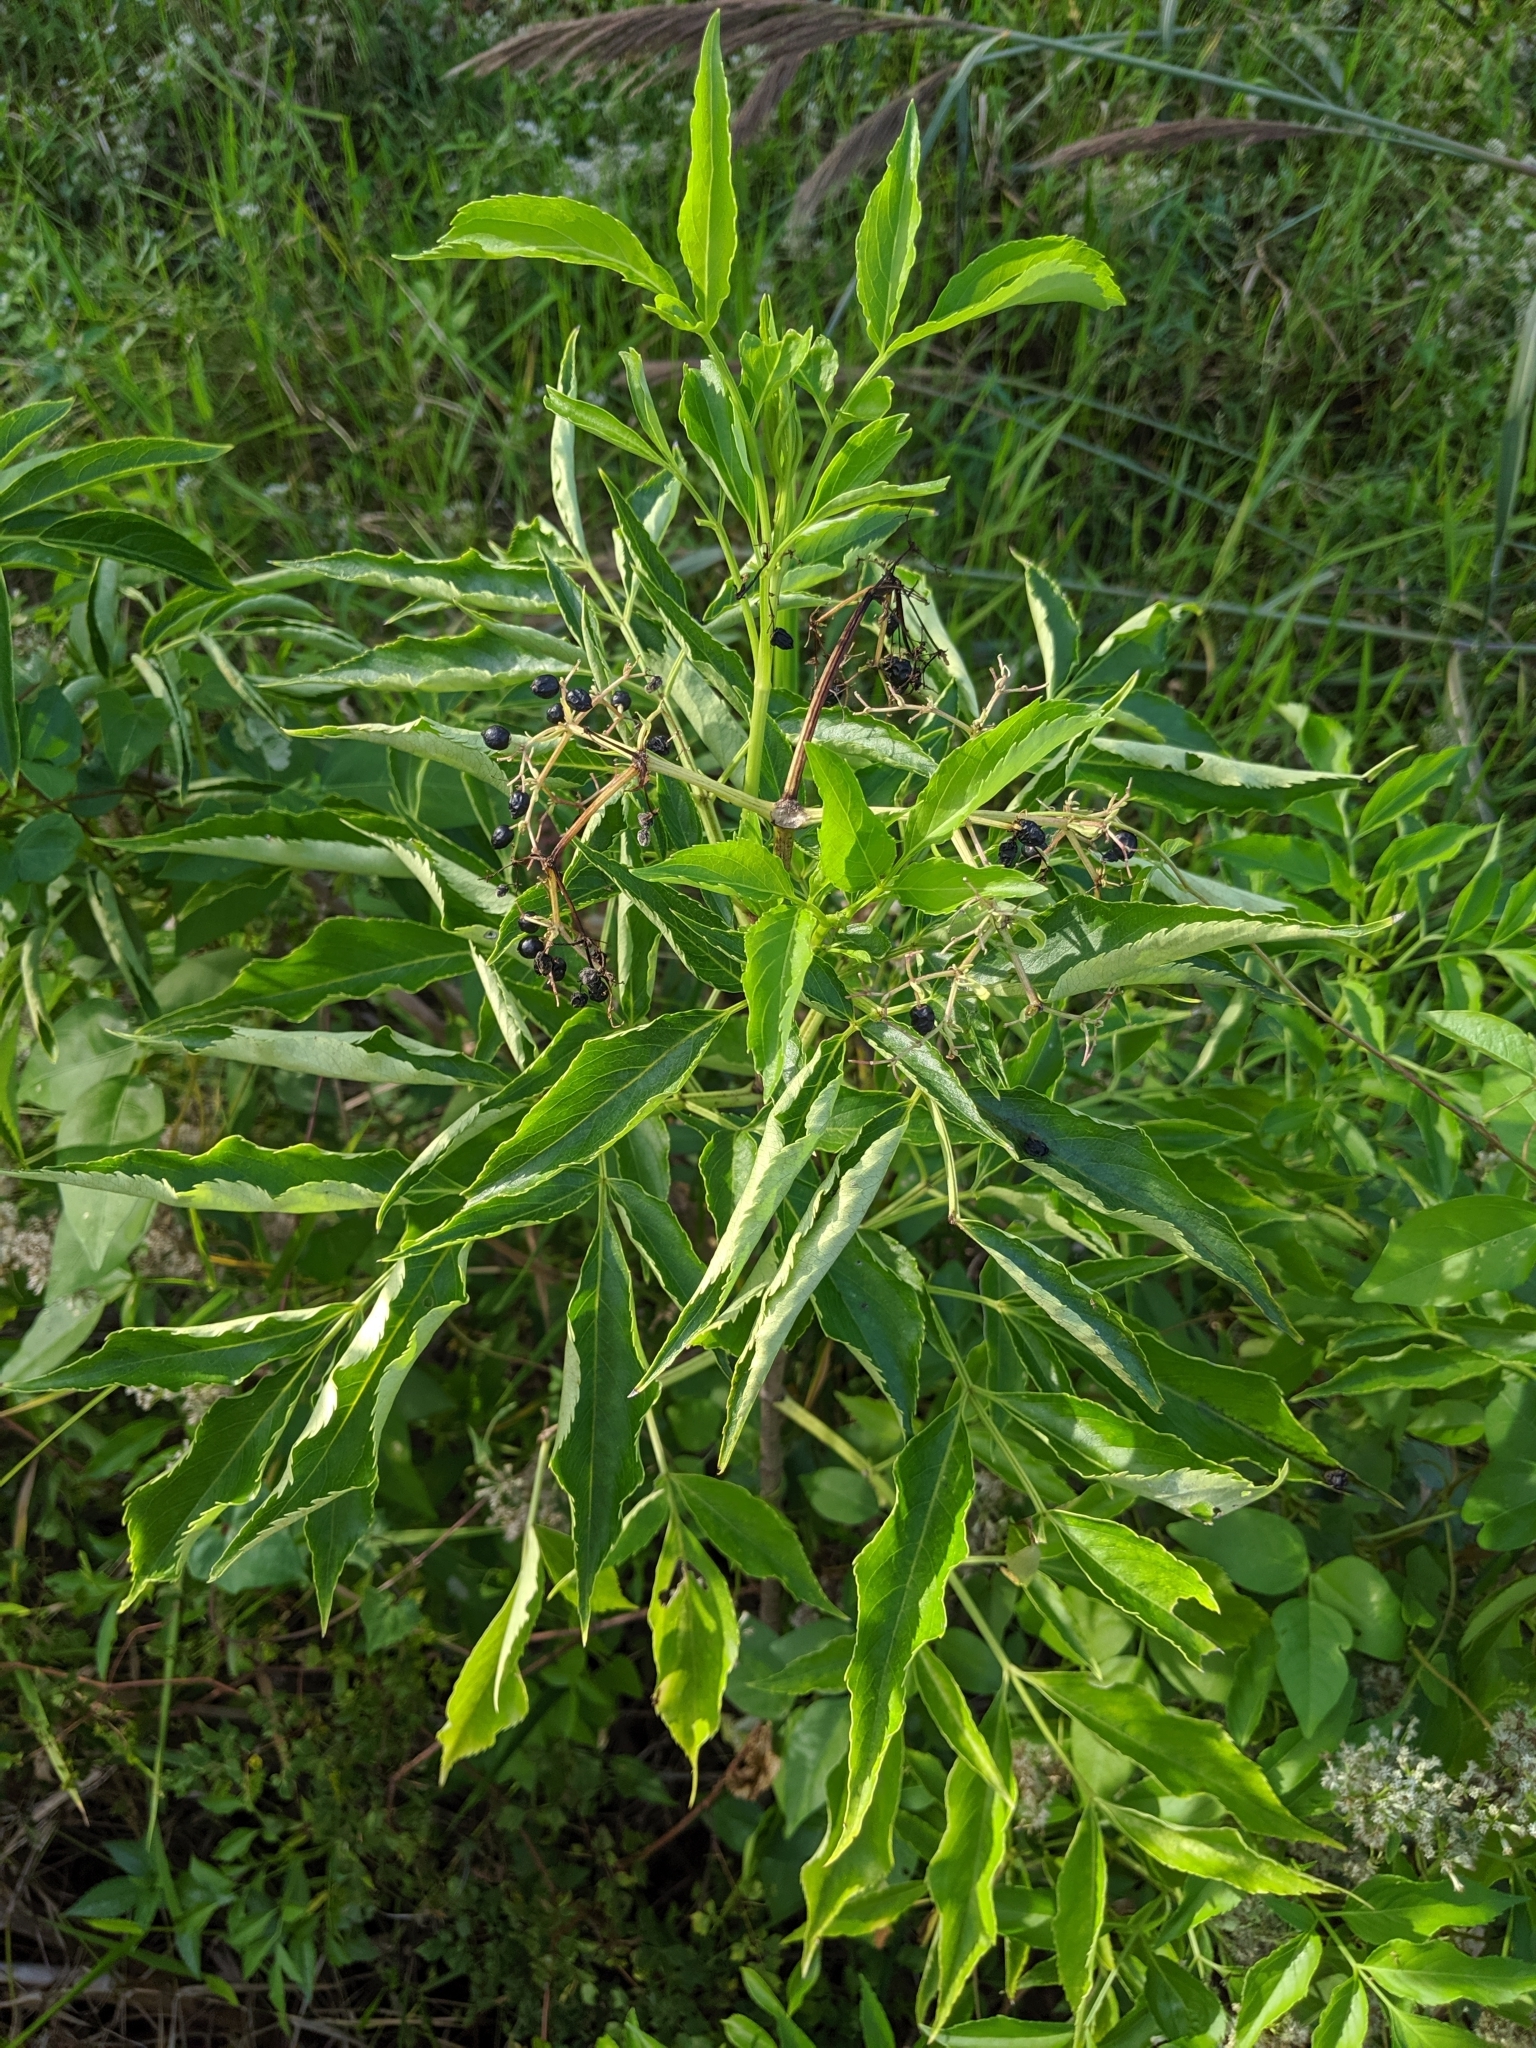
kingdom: Plantae
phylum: Tracheophyta
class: Magnoliopsida
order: Dipsacales
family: Viburnaceae
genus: Sambucus
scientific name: Sambucus canadensis
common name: American elder
